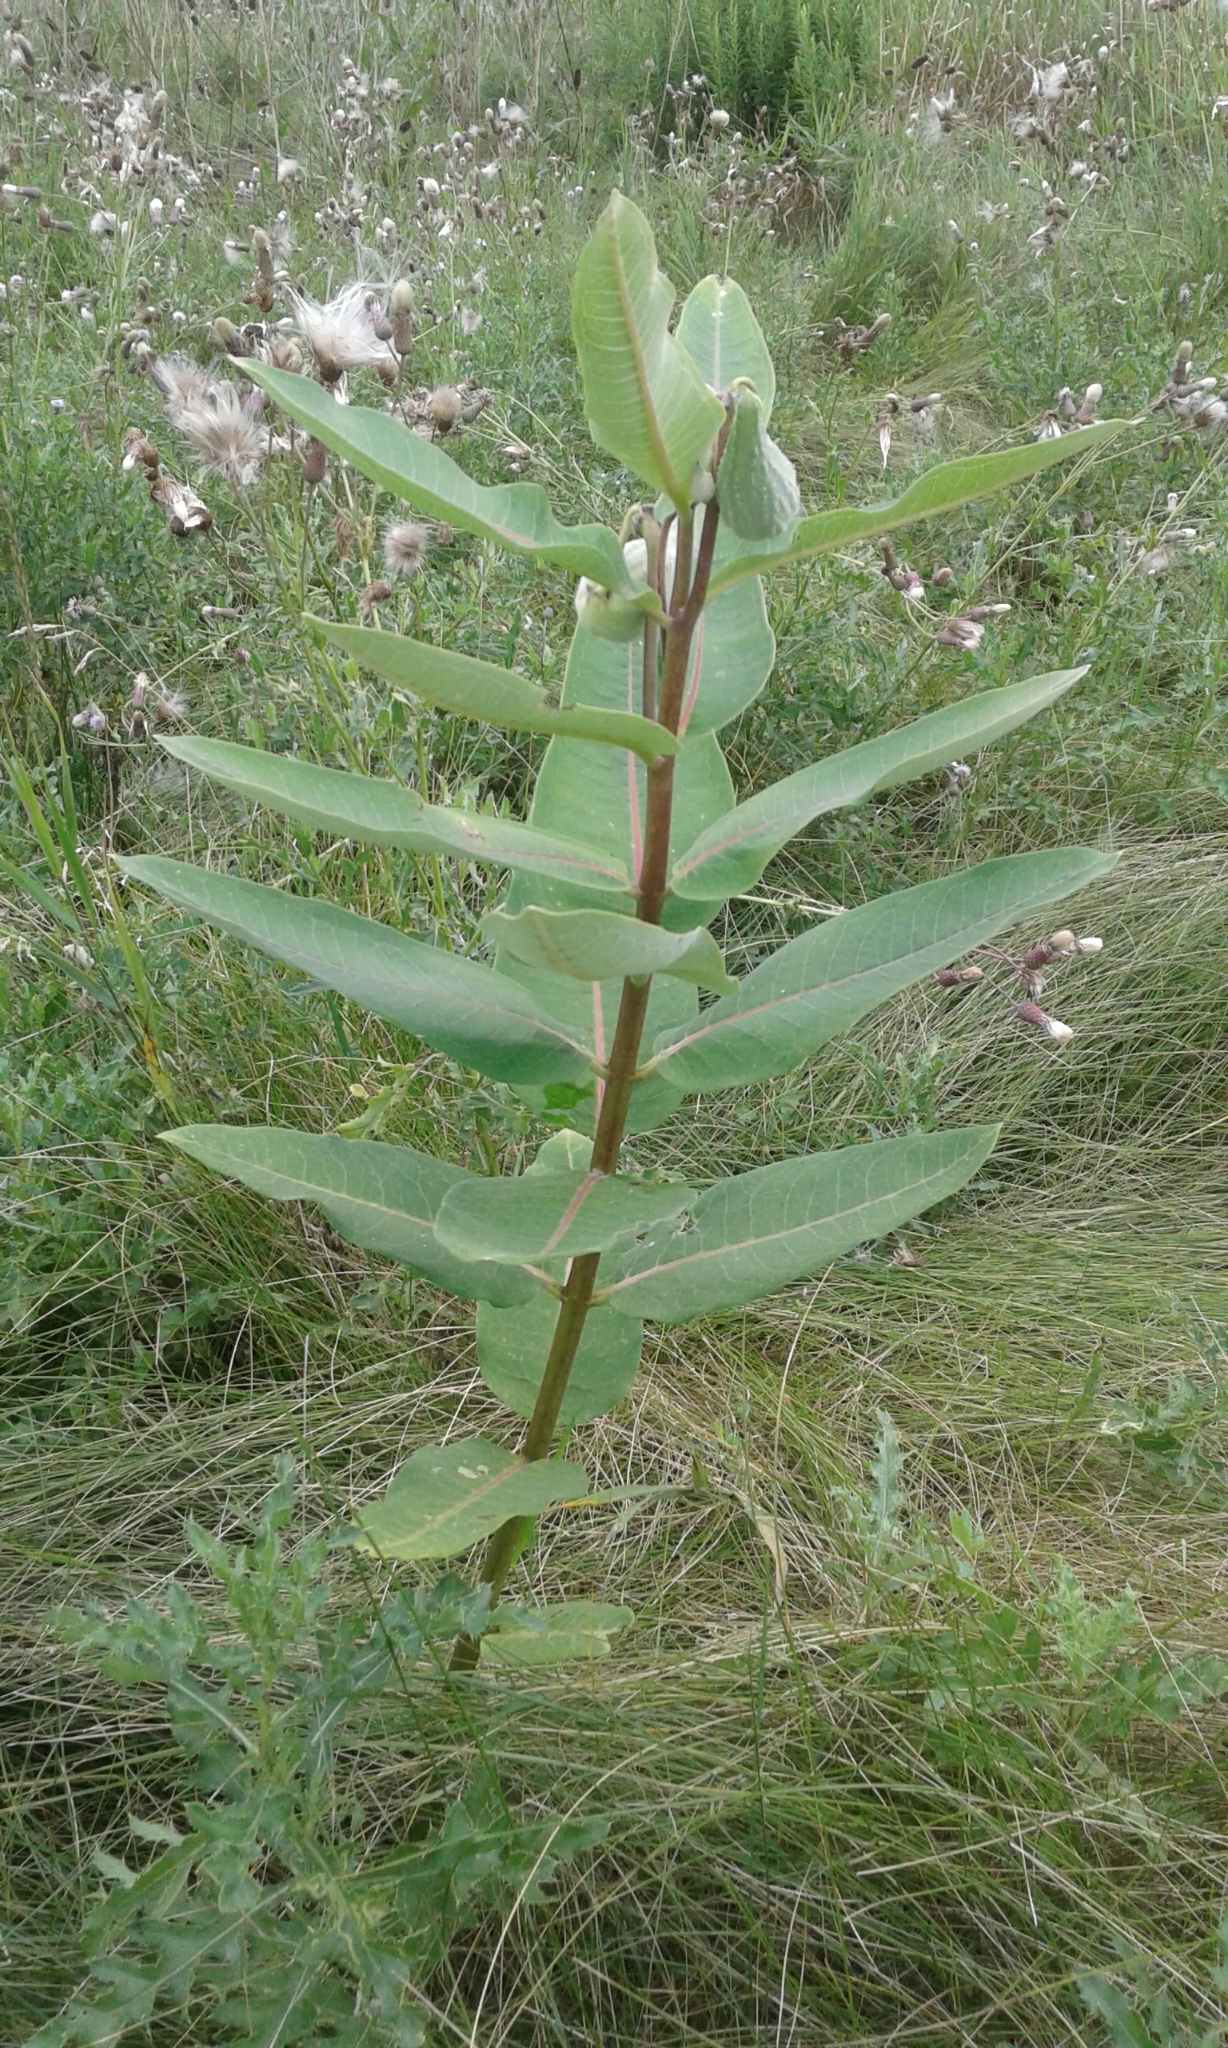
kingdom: Plantae
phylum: Tracheophyta
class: Magnoliopsida
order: Gentianales
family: Apocynaceae
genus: Asclepias
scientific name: Asclepias syriaca
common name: Common milkweed
